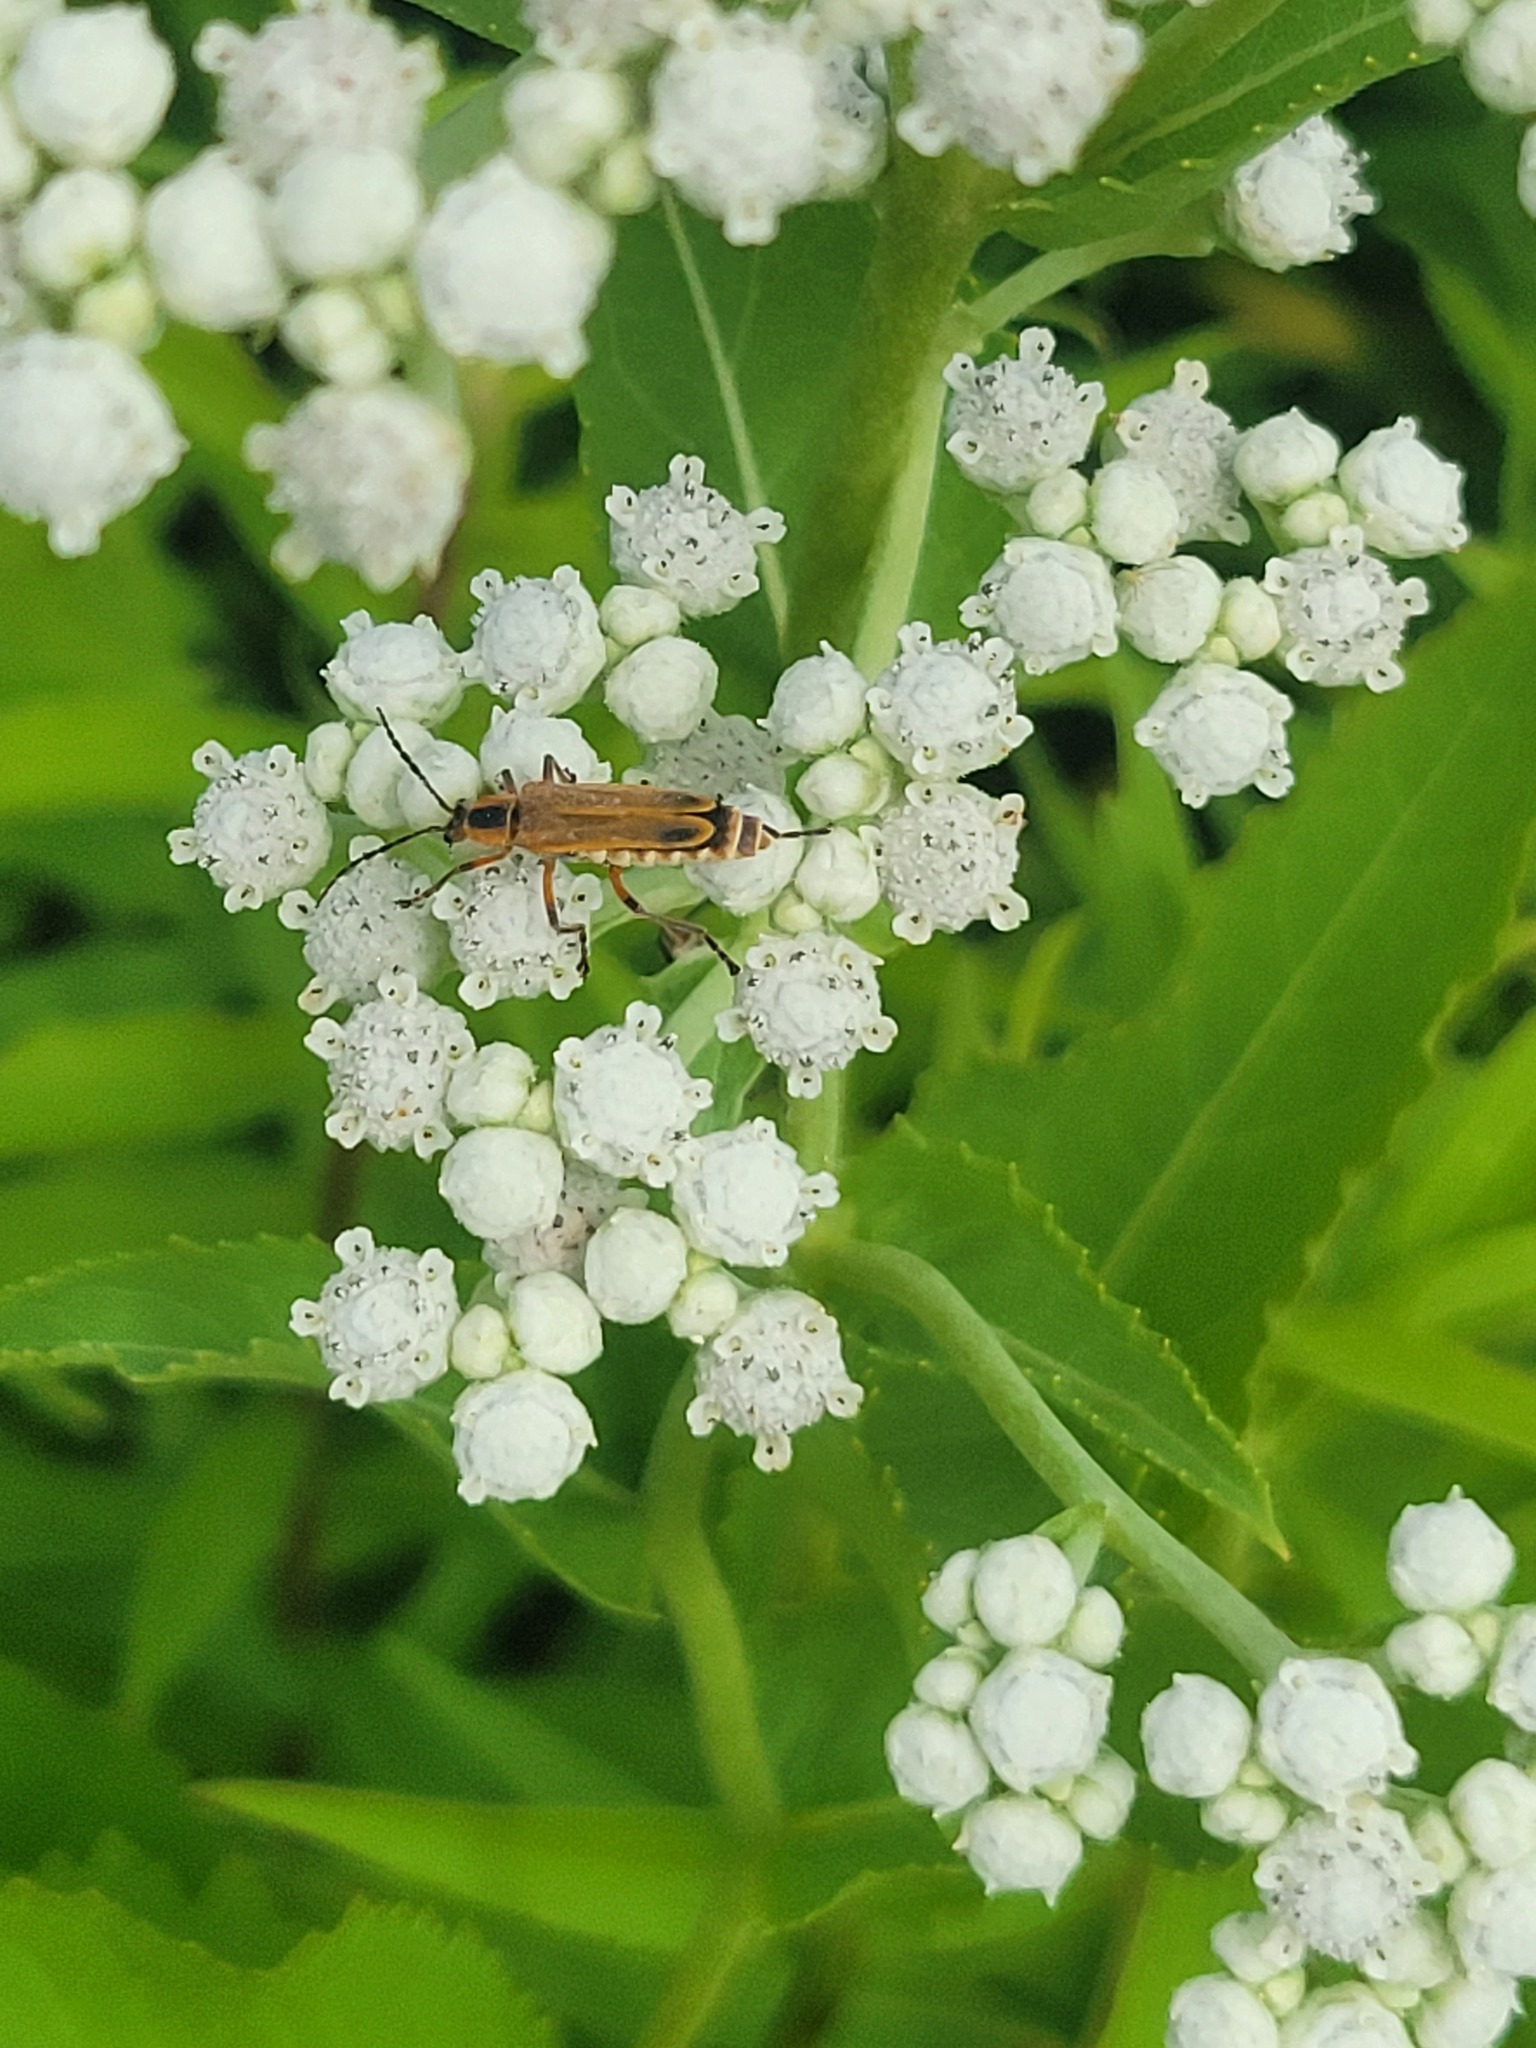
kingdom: Animalia
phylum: Arthropoda
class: Insecta
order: Coleoptera
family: Cantharidae
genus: Chauliognathus
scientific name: Chauliognathus marginatus
